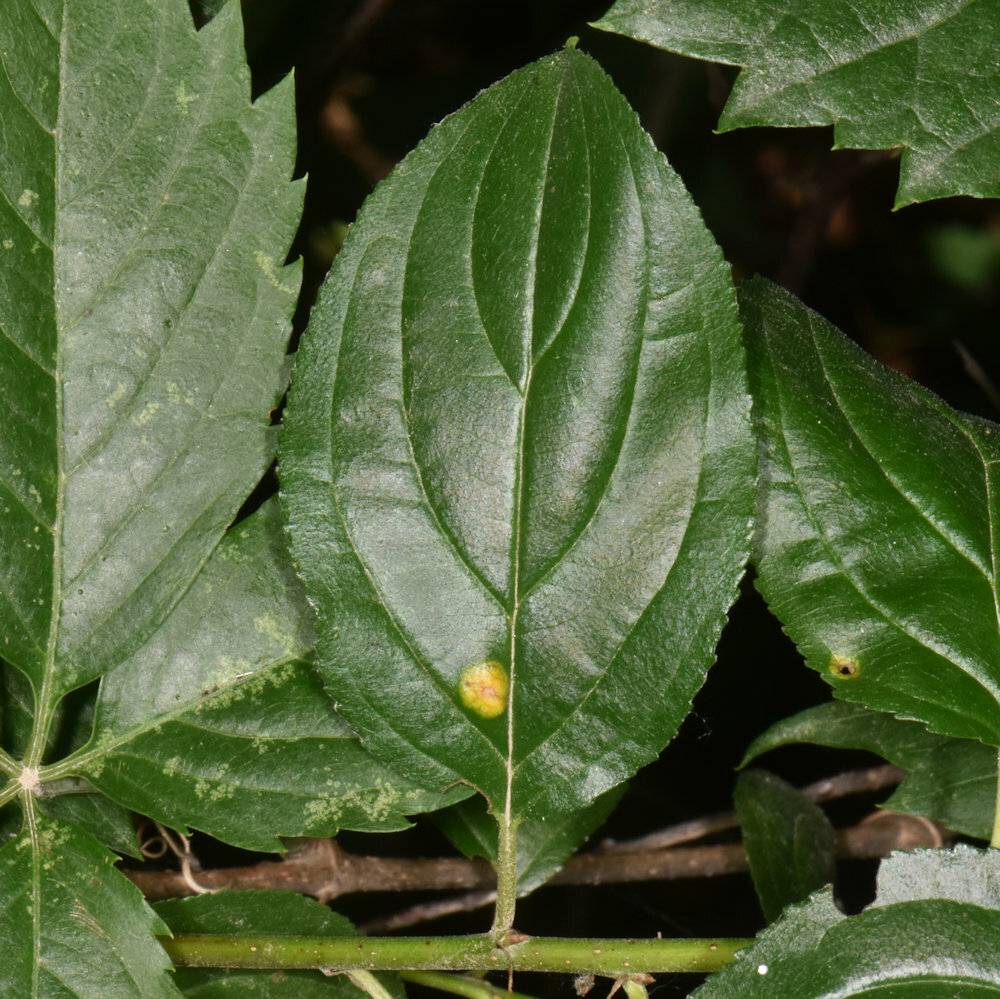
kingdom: Fungi
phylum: Basidiomycota
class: Pucciniomycetes
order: Pucciniales
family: Pucciniaceae
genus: Puccinia
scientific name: Puccinia coronata
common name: Crown rust
